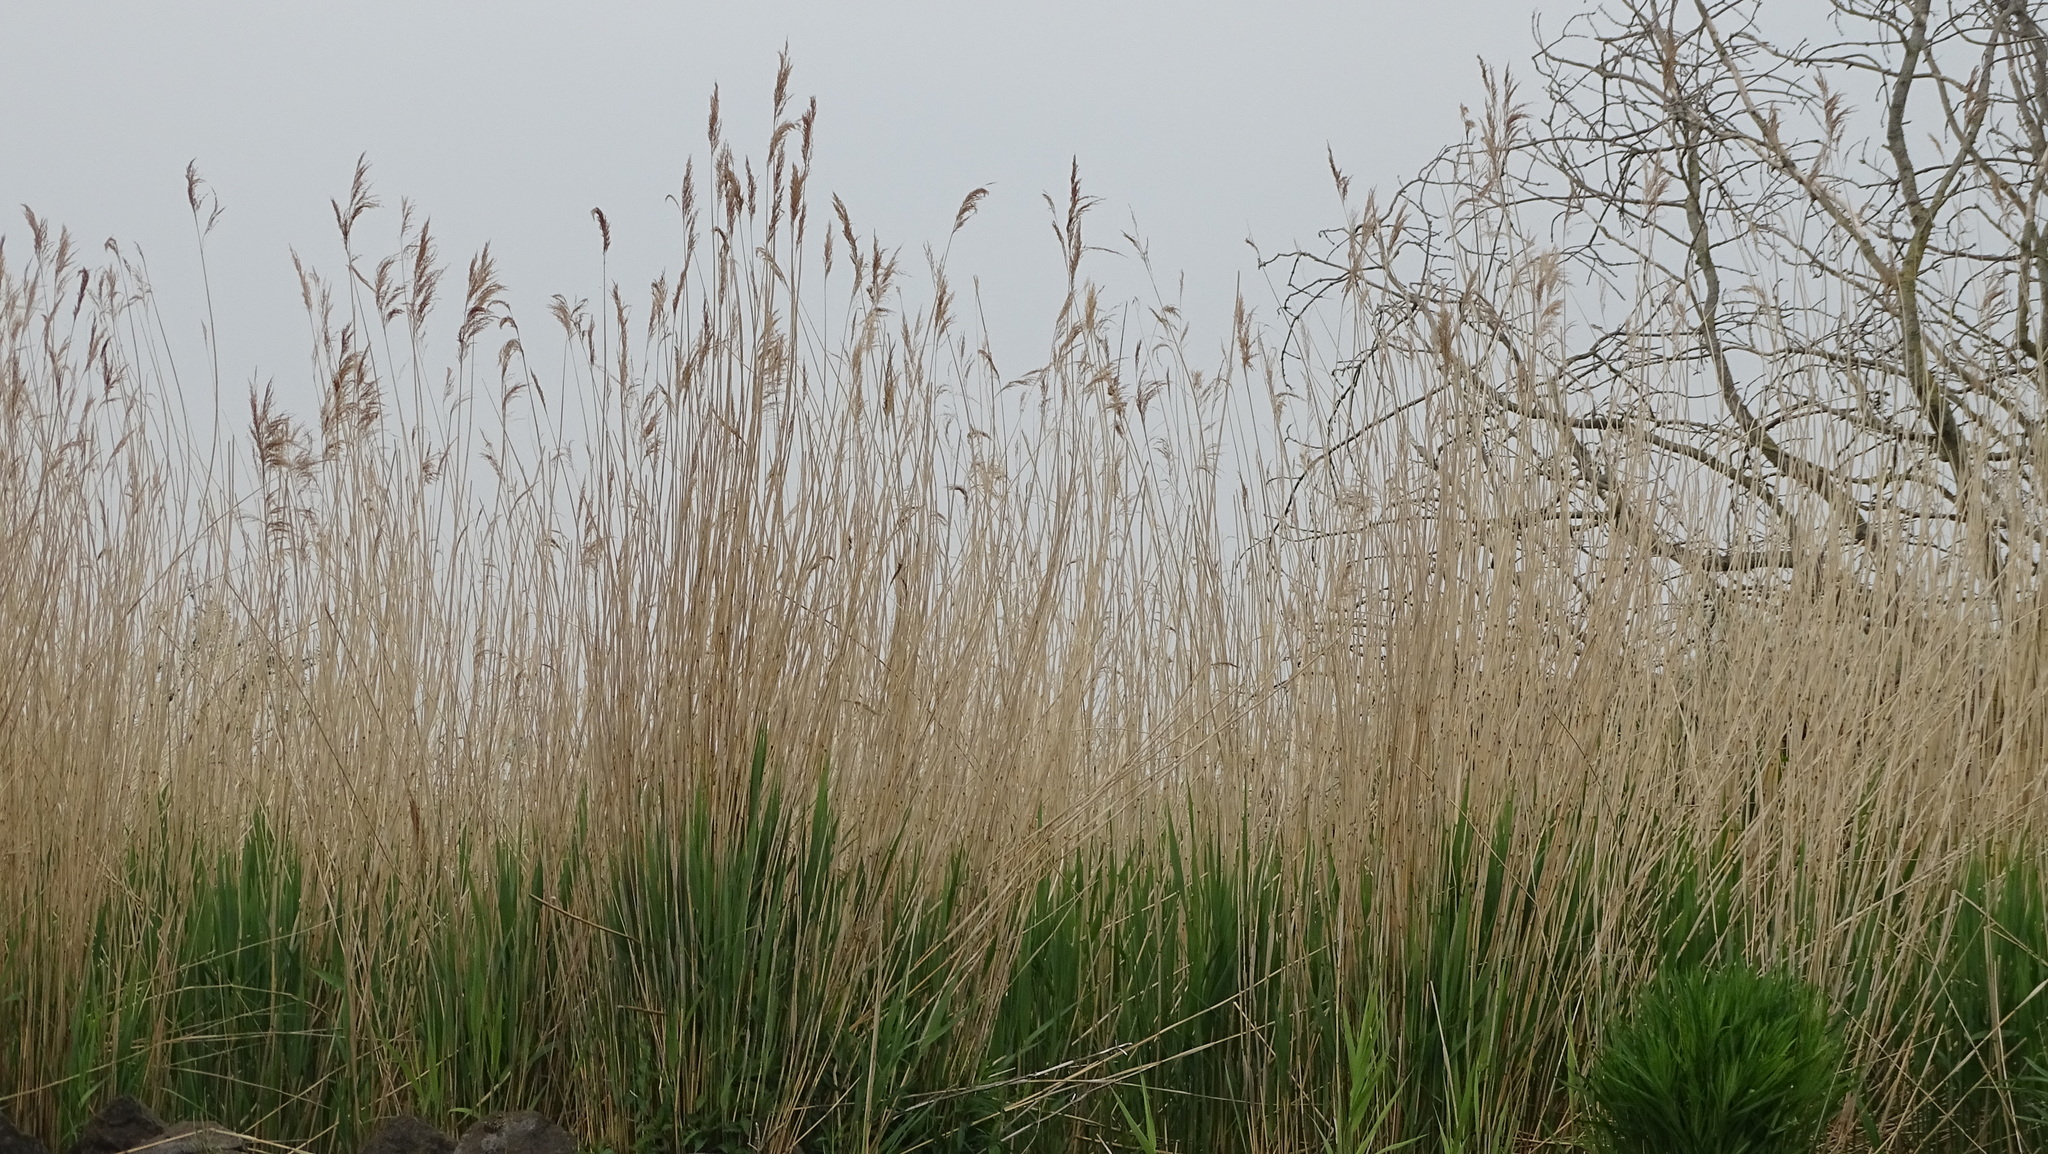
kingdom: Plantae
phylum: Tracheophyta
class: Liliopsida
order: Poales
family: Poaceae
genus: Phragmites
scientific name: Phragmites australis
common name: Common reed
